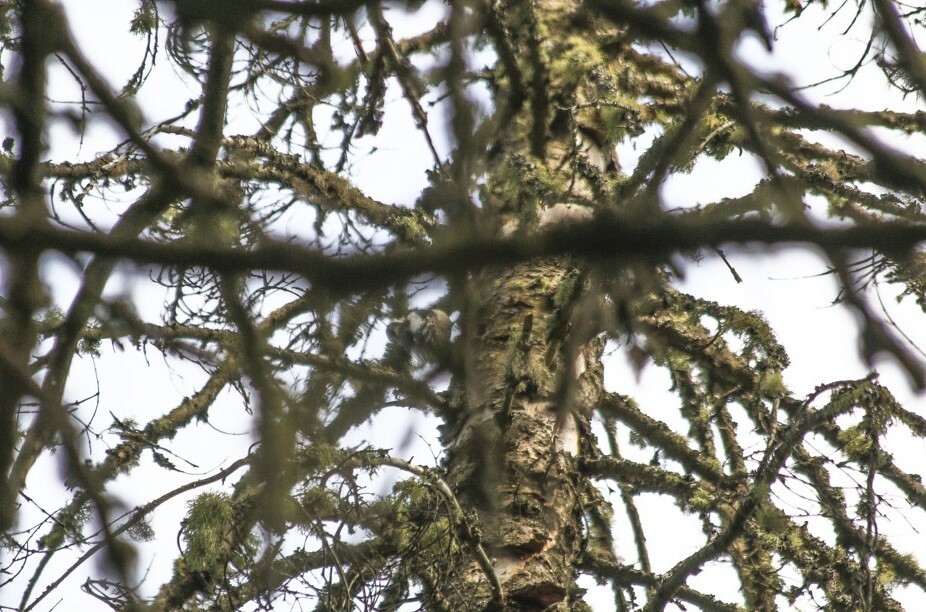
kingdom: Animalia
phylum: Chordata
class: Aves
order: Piciformes
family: Picidae
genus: Dendrocopos
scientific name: Dendrocopos major
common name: Great spotted woodpecker
